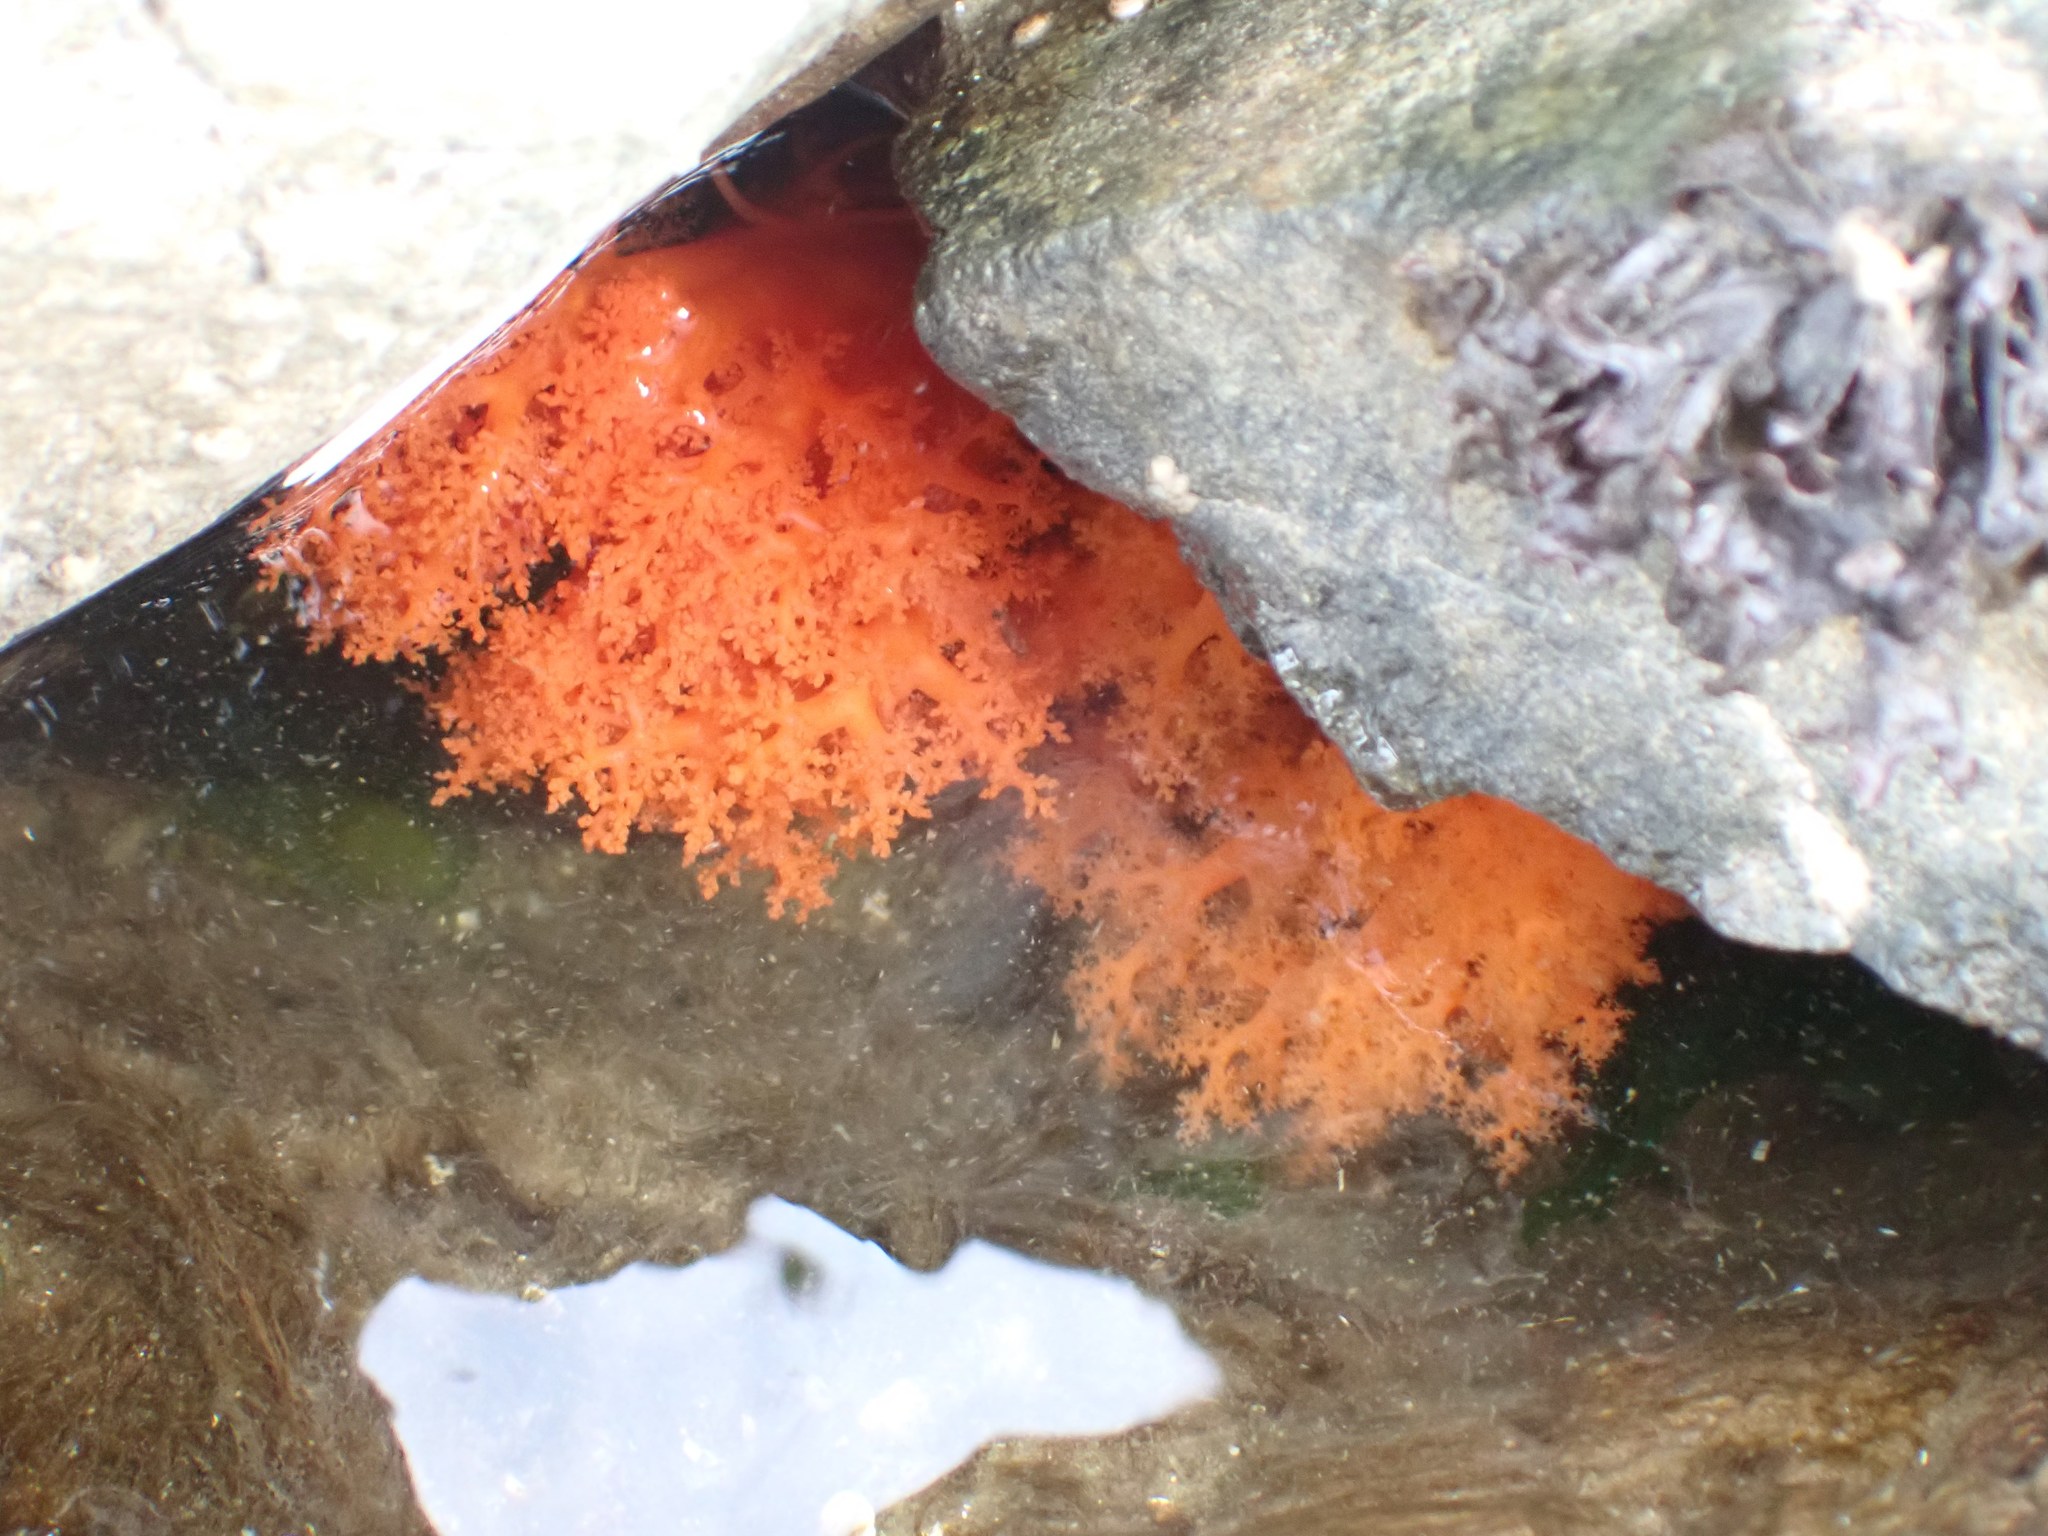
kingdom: Animalia
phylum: Echinodermata
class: Holothuroidea
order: Dendrochirotida
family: Cucumariidae
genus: Cucumaria
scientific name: Cucumaria miniata
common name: Orange sea cucumber
